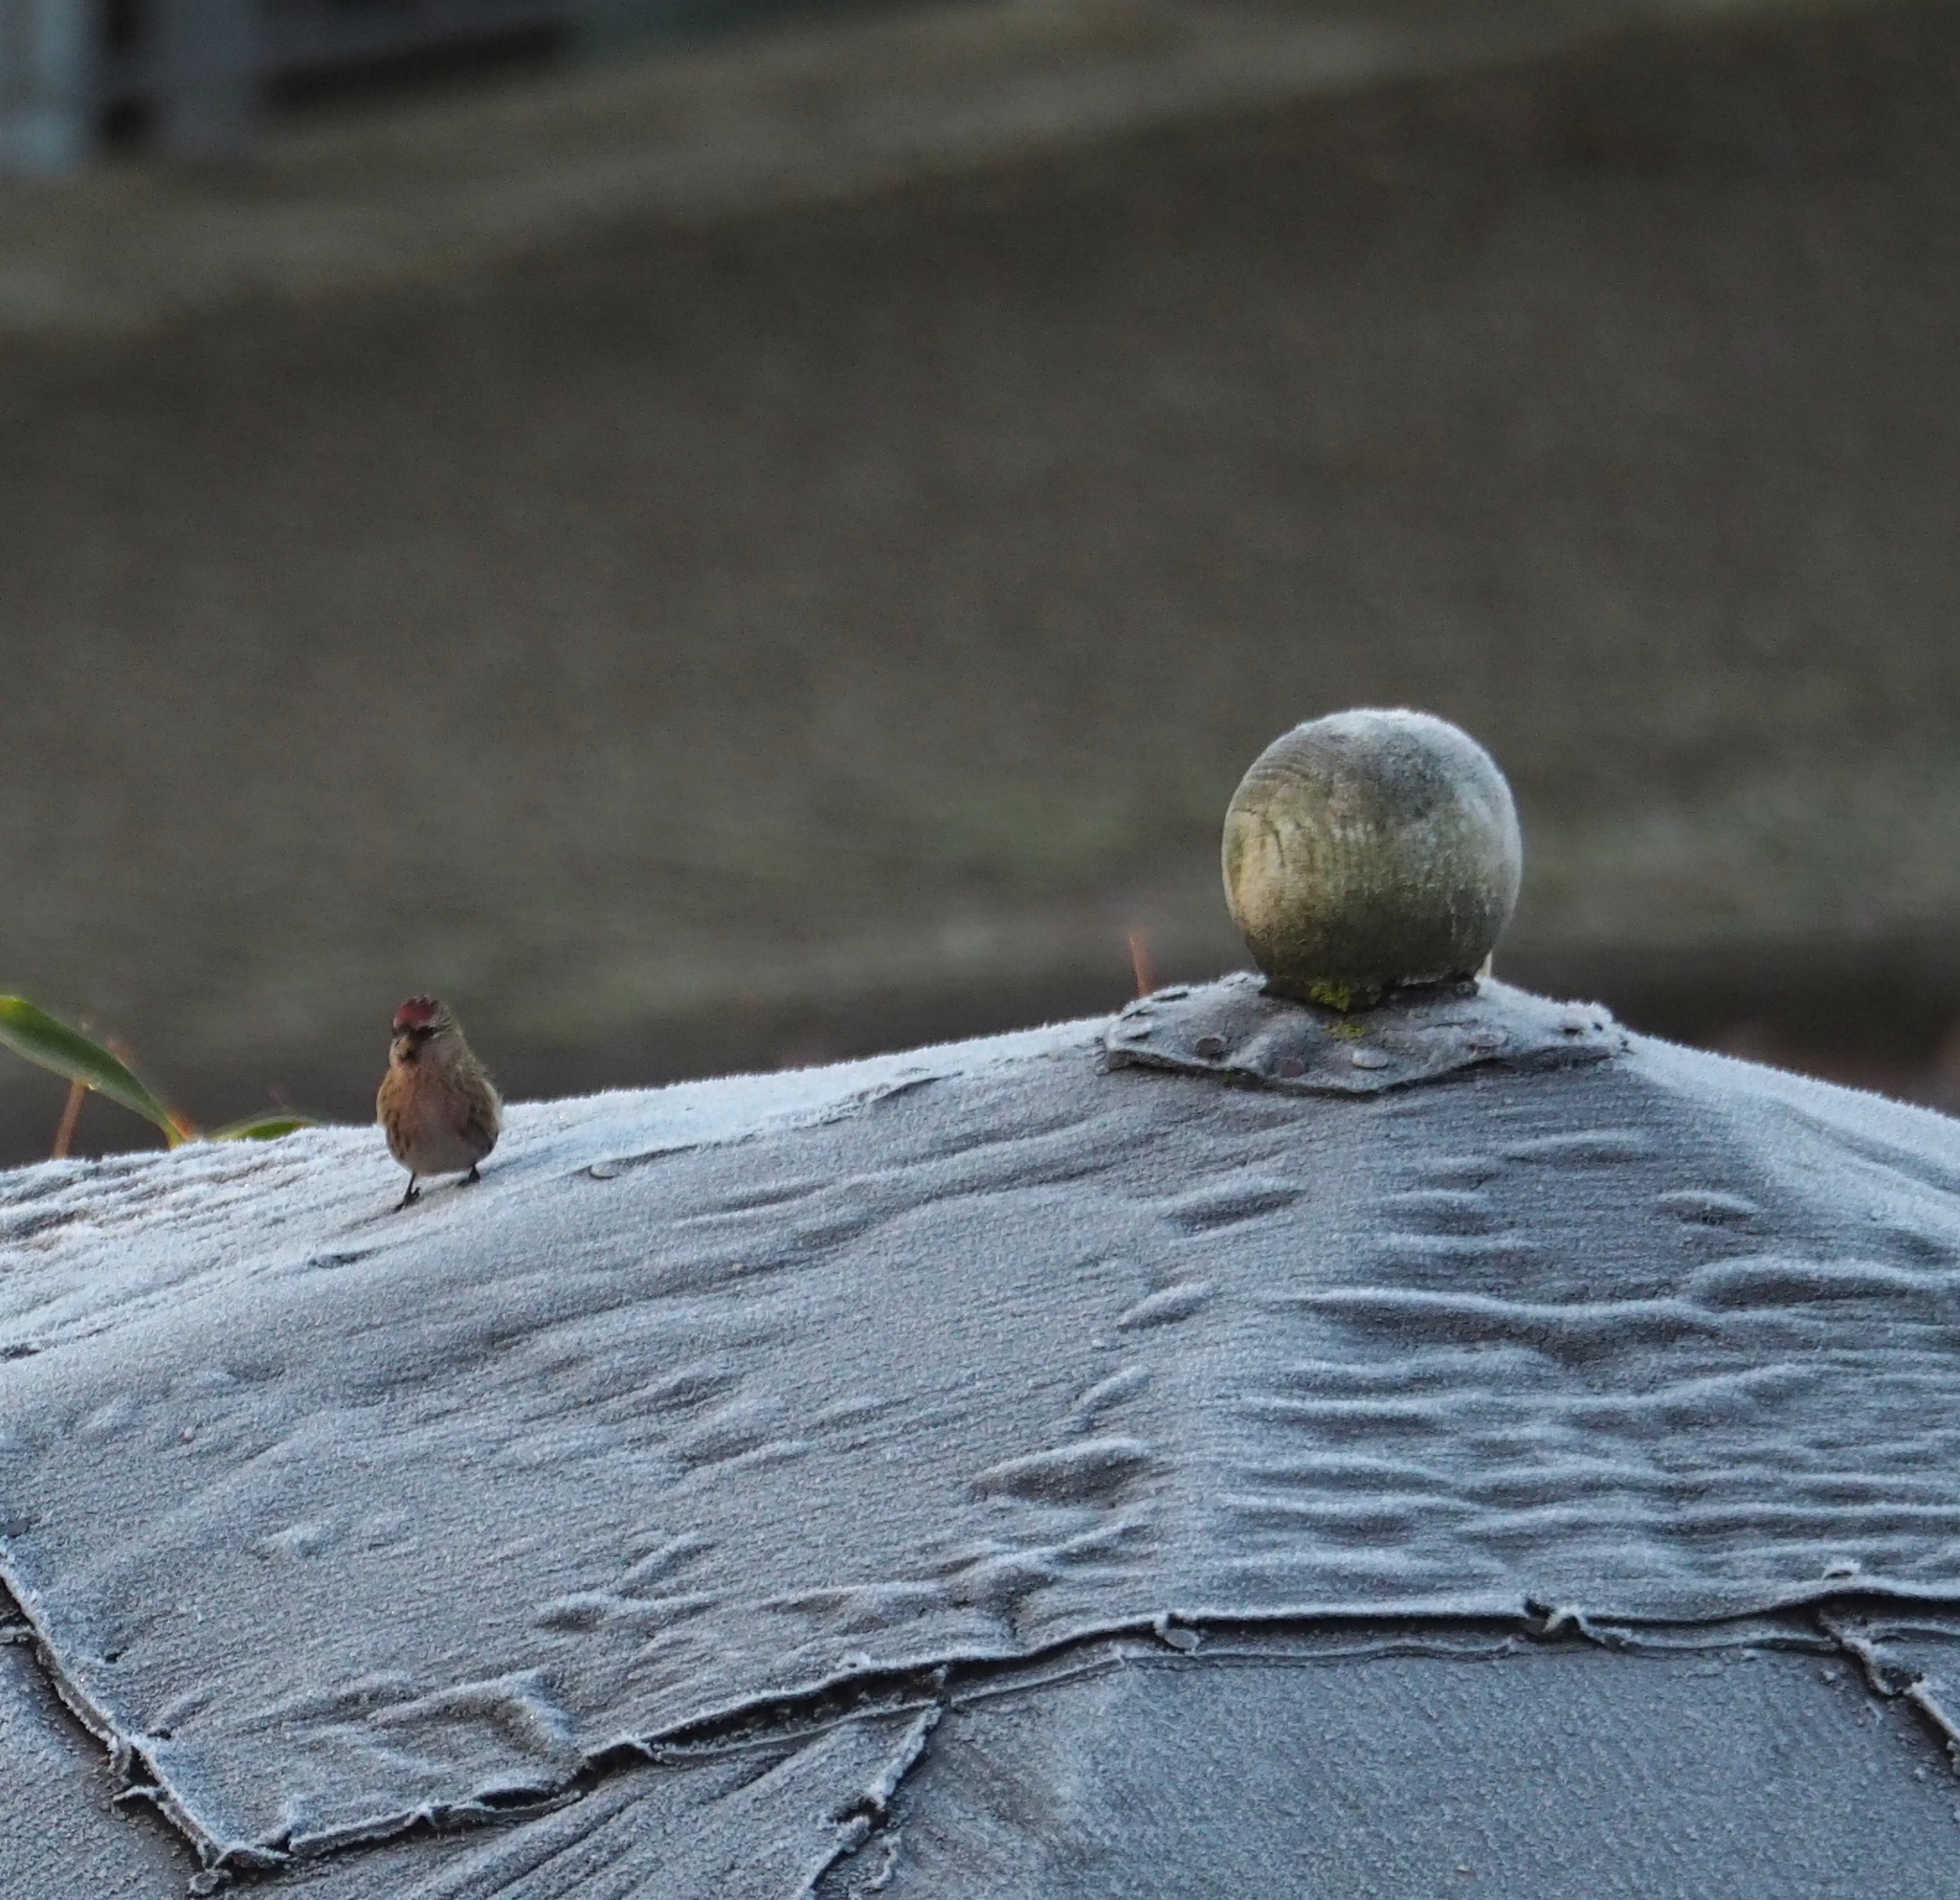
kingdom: Animalia
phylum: Chordata
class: Aves
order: Passeriformes
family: Fringillidae
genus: Acanthis
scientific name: Acanthis flammea
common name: Common redpoll
